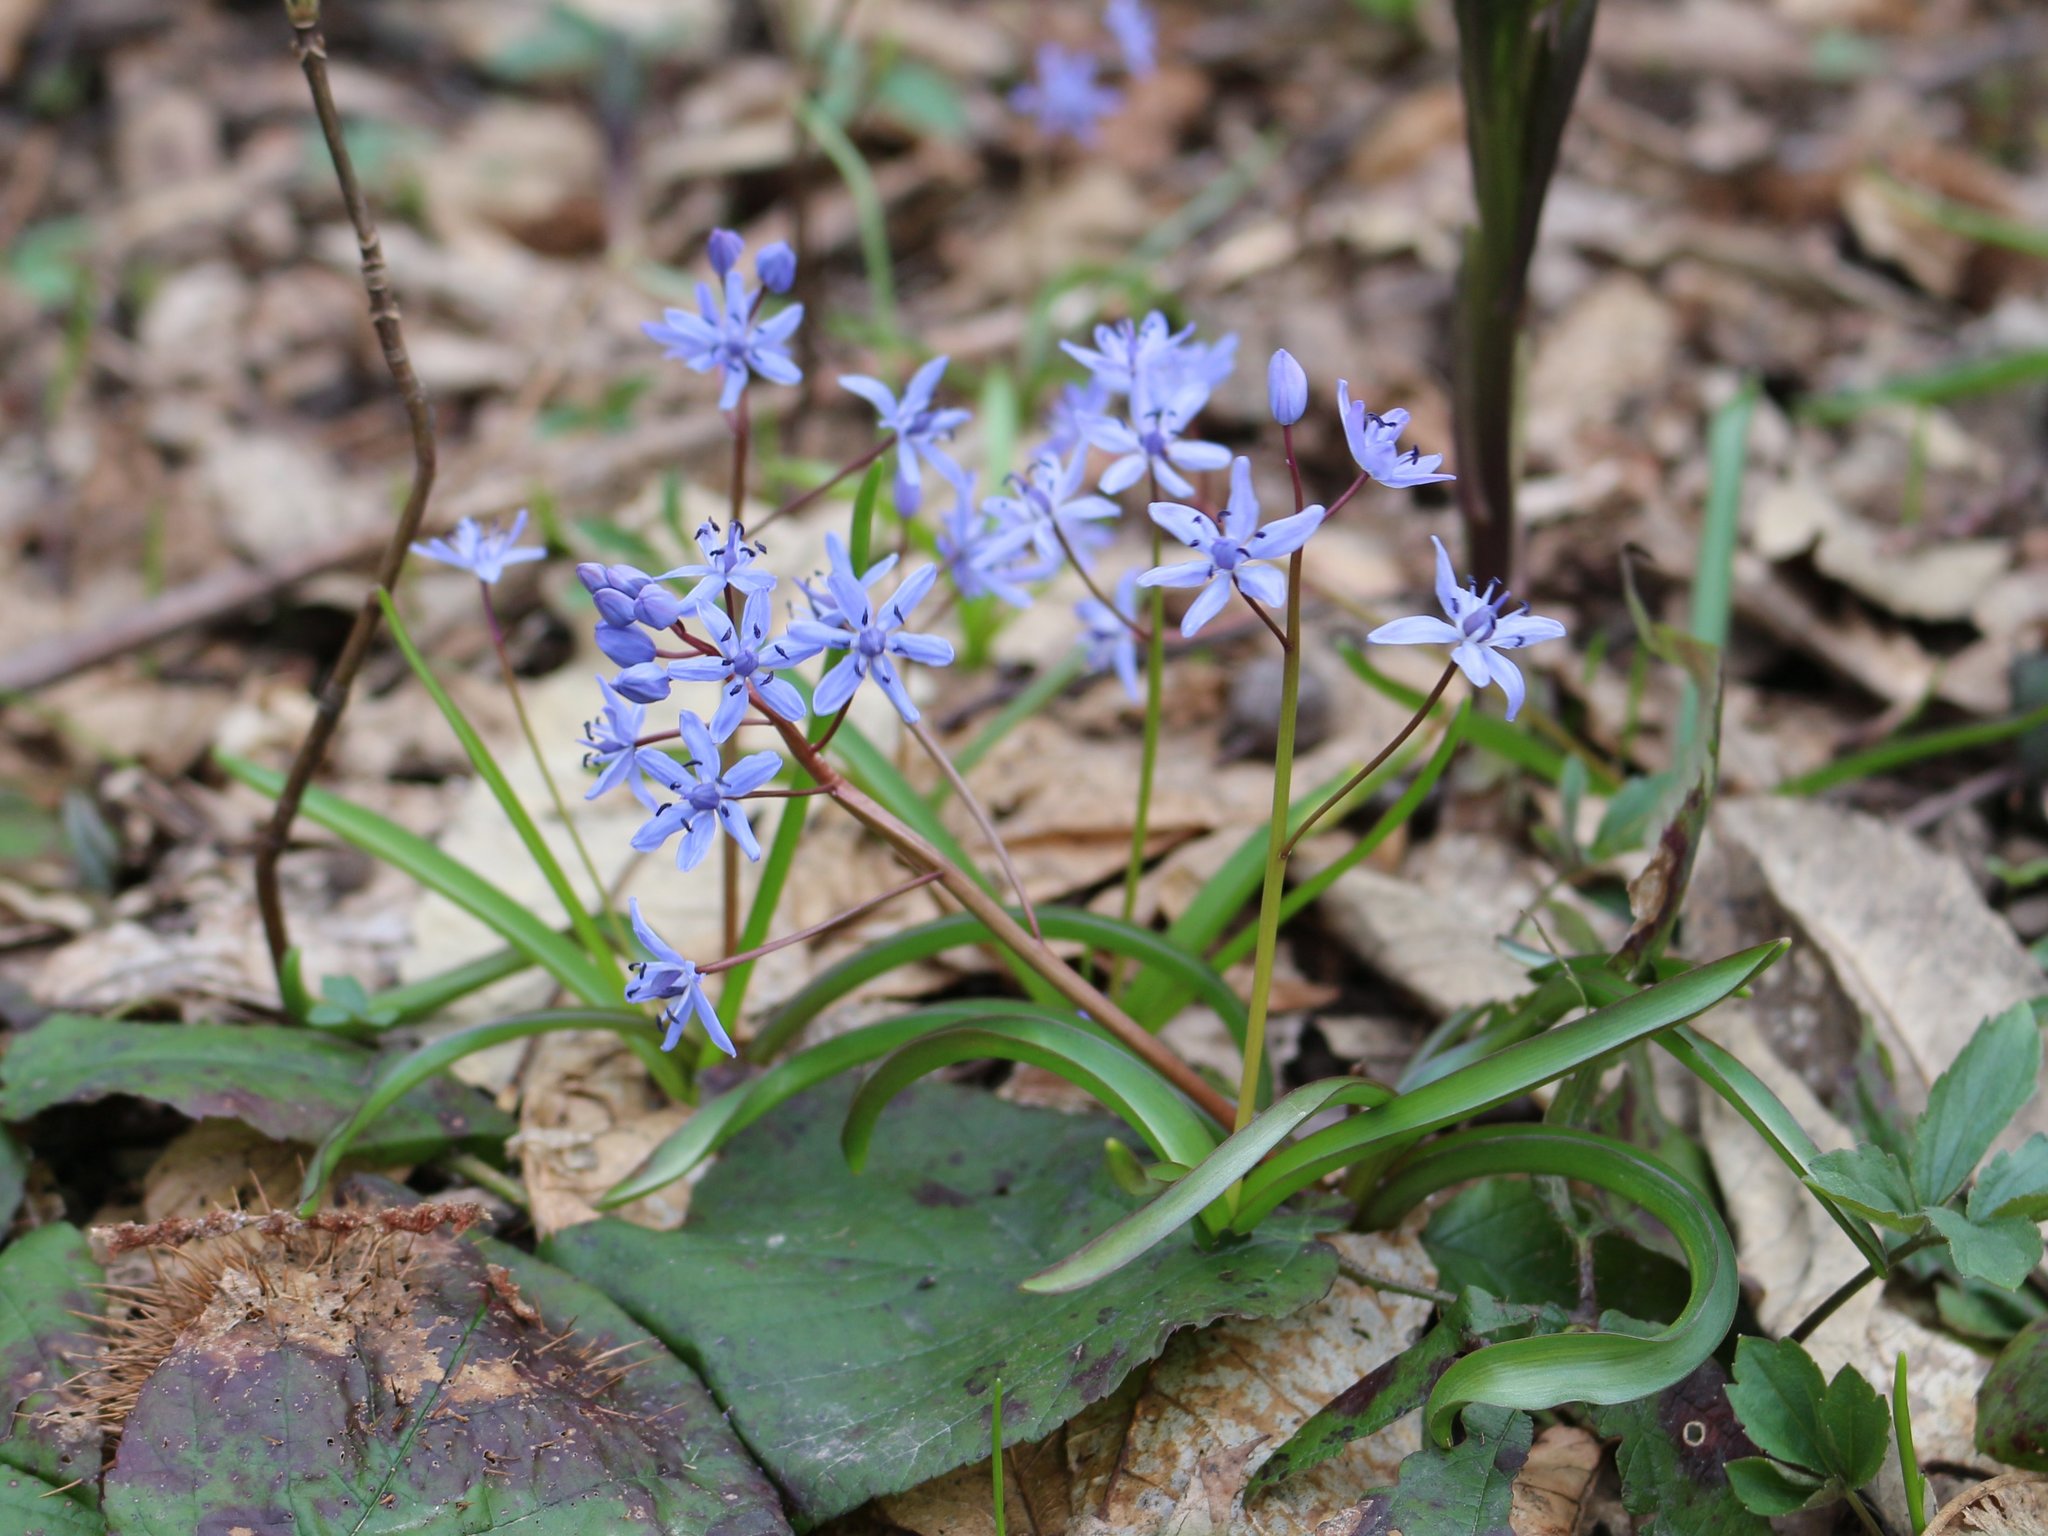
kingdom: Plantae
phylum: Tracheophyta
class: Liliopsida
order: Asparagales
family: Asparagaceae
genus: Scilla
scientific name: Scilla bifolia
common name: Alpine squill
